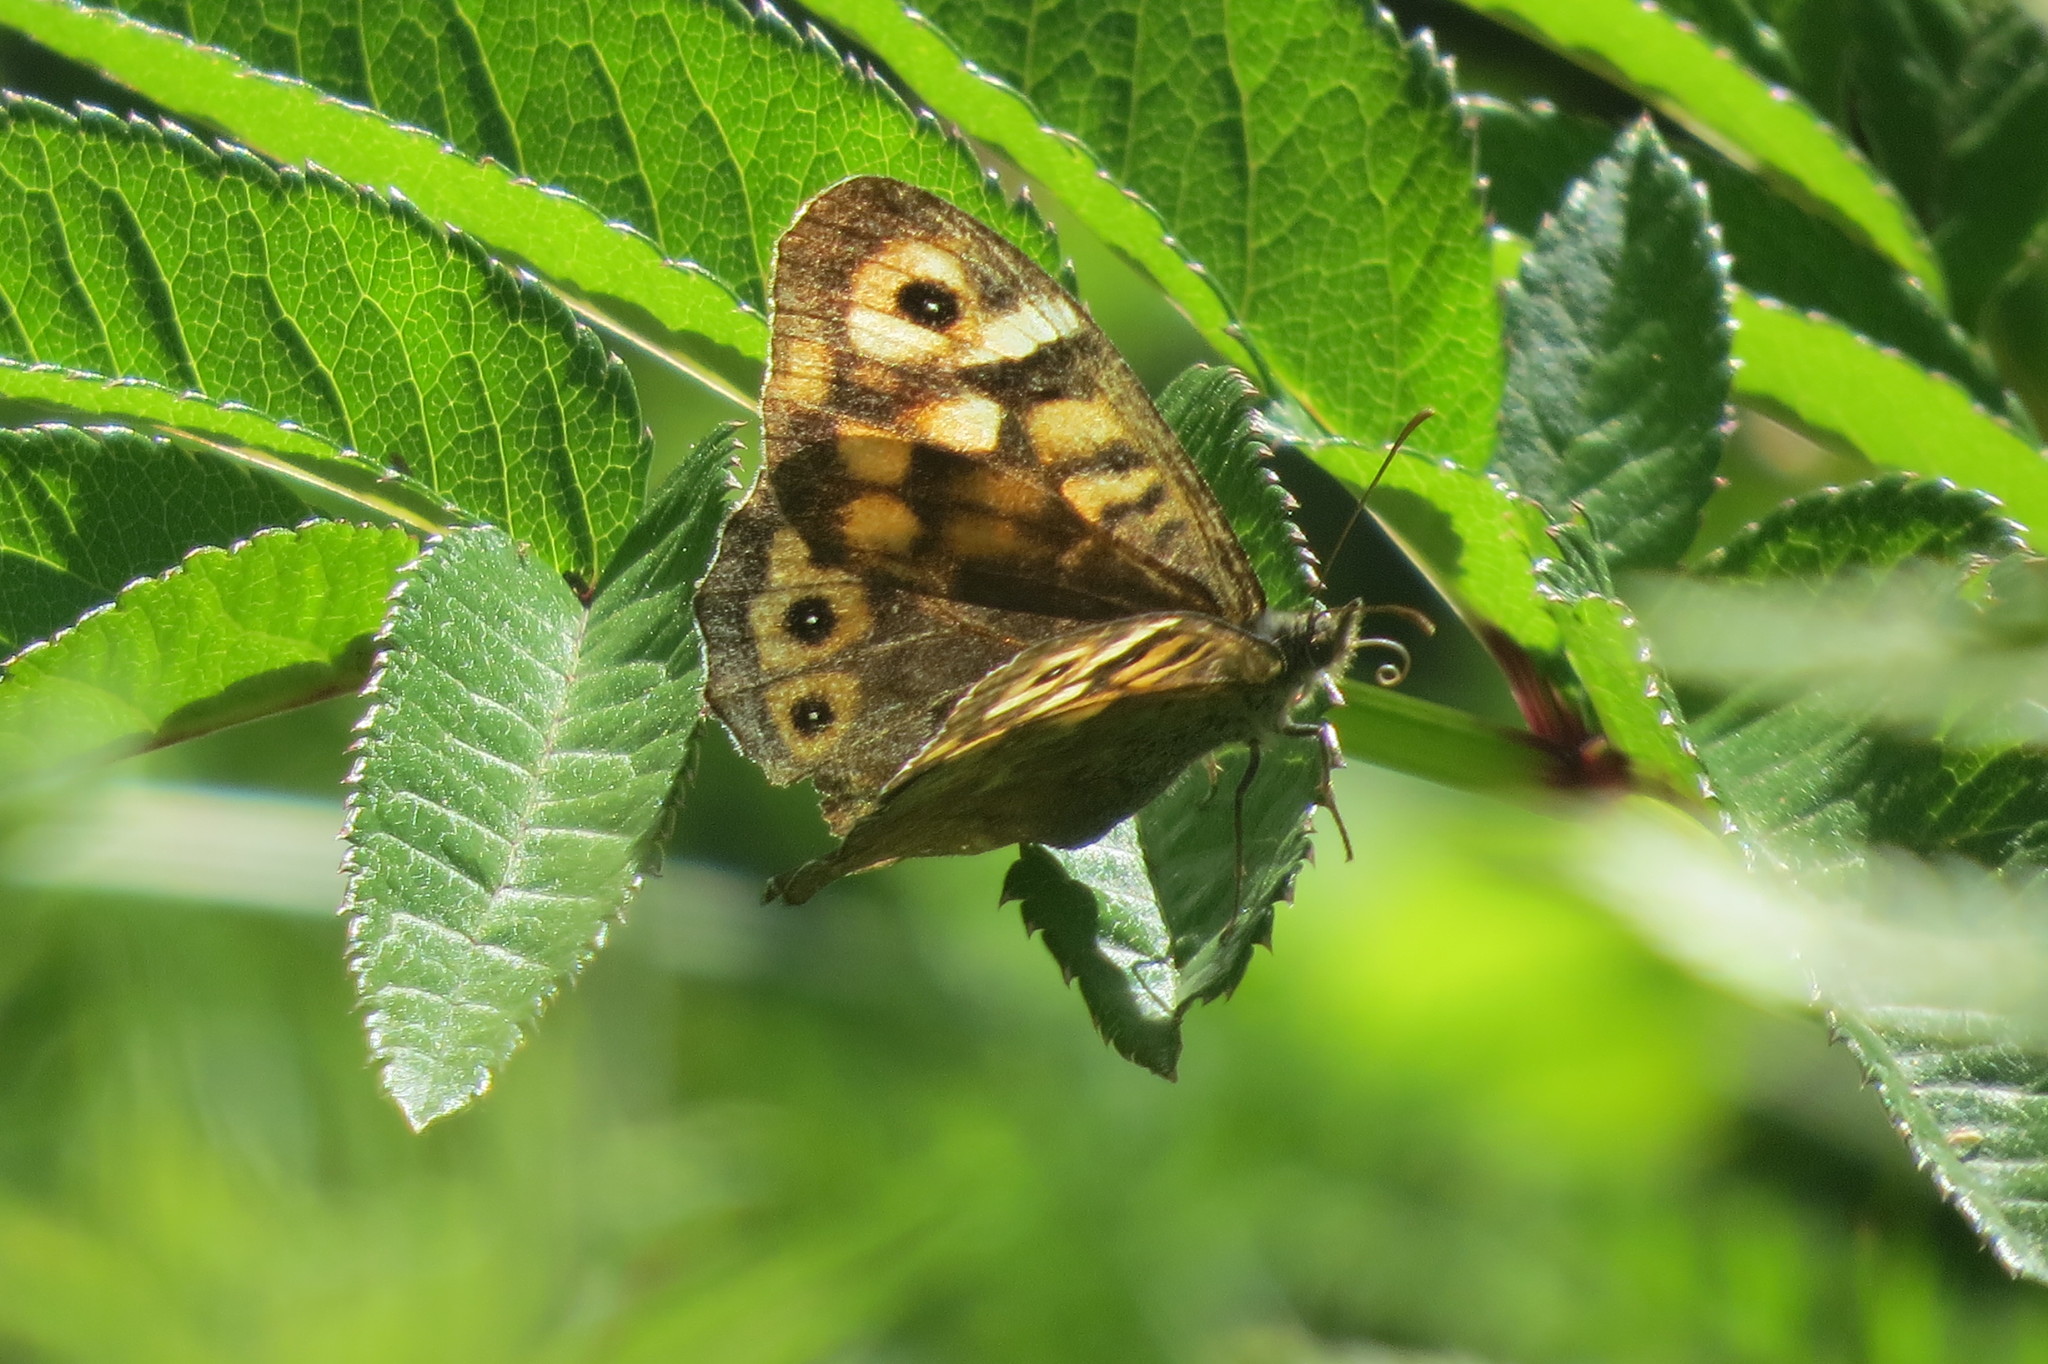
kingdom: Animalia
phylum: Arthropoda
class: Insecta
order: Lepidoptera
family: Nymphalidae
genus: Pararge
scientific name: Pararge aegeria
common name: Speckled wood
